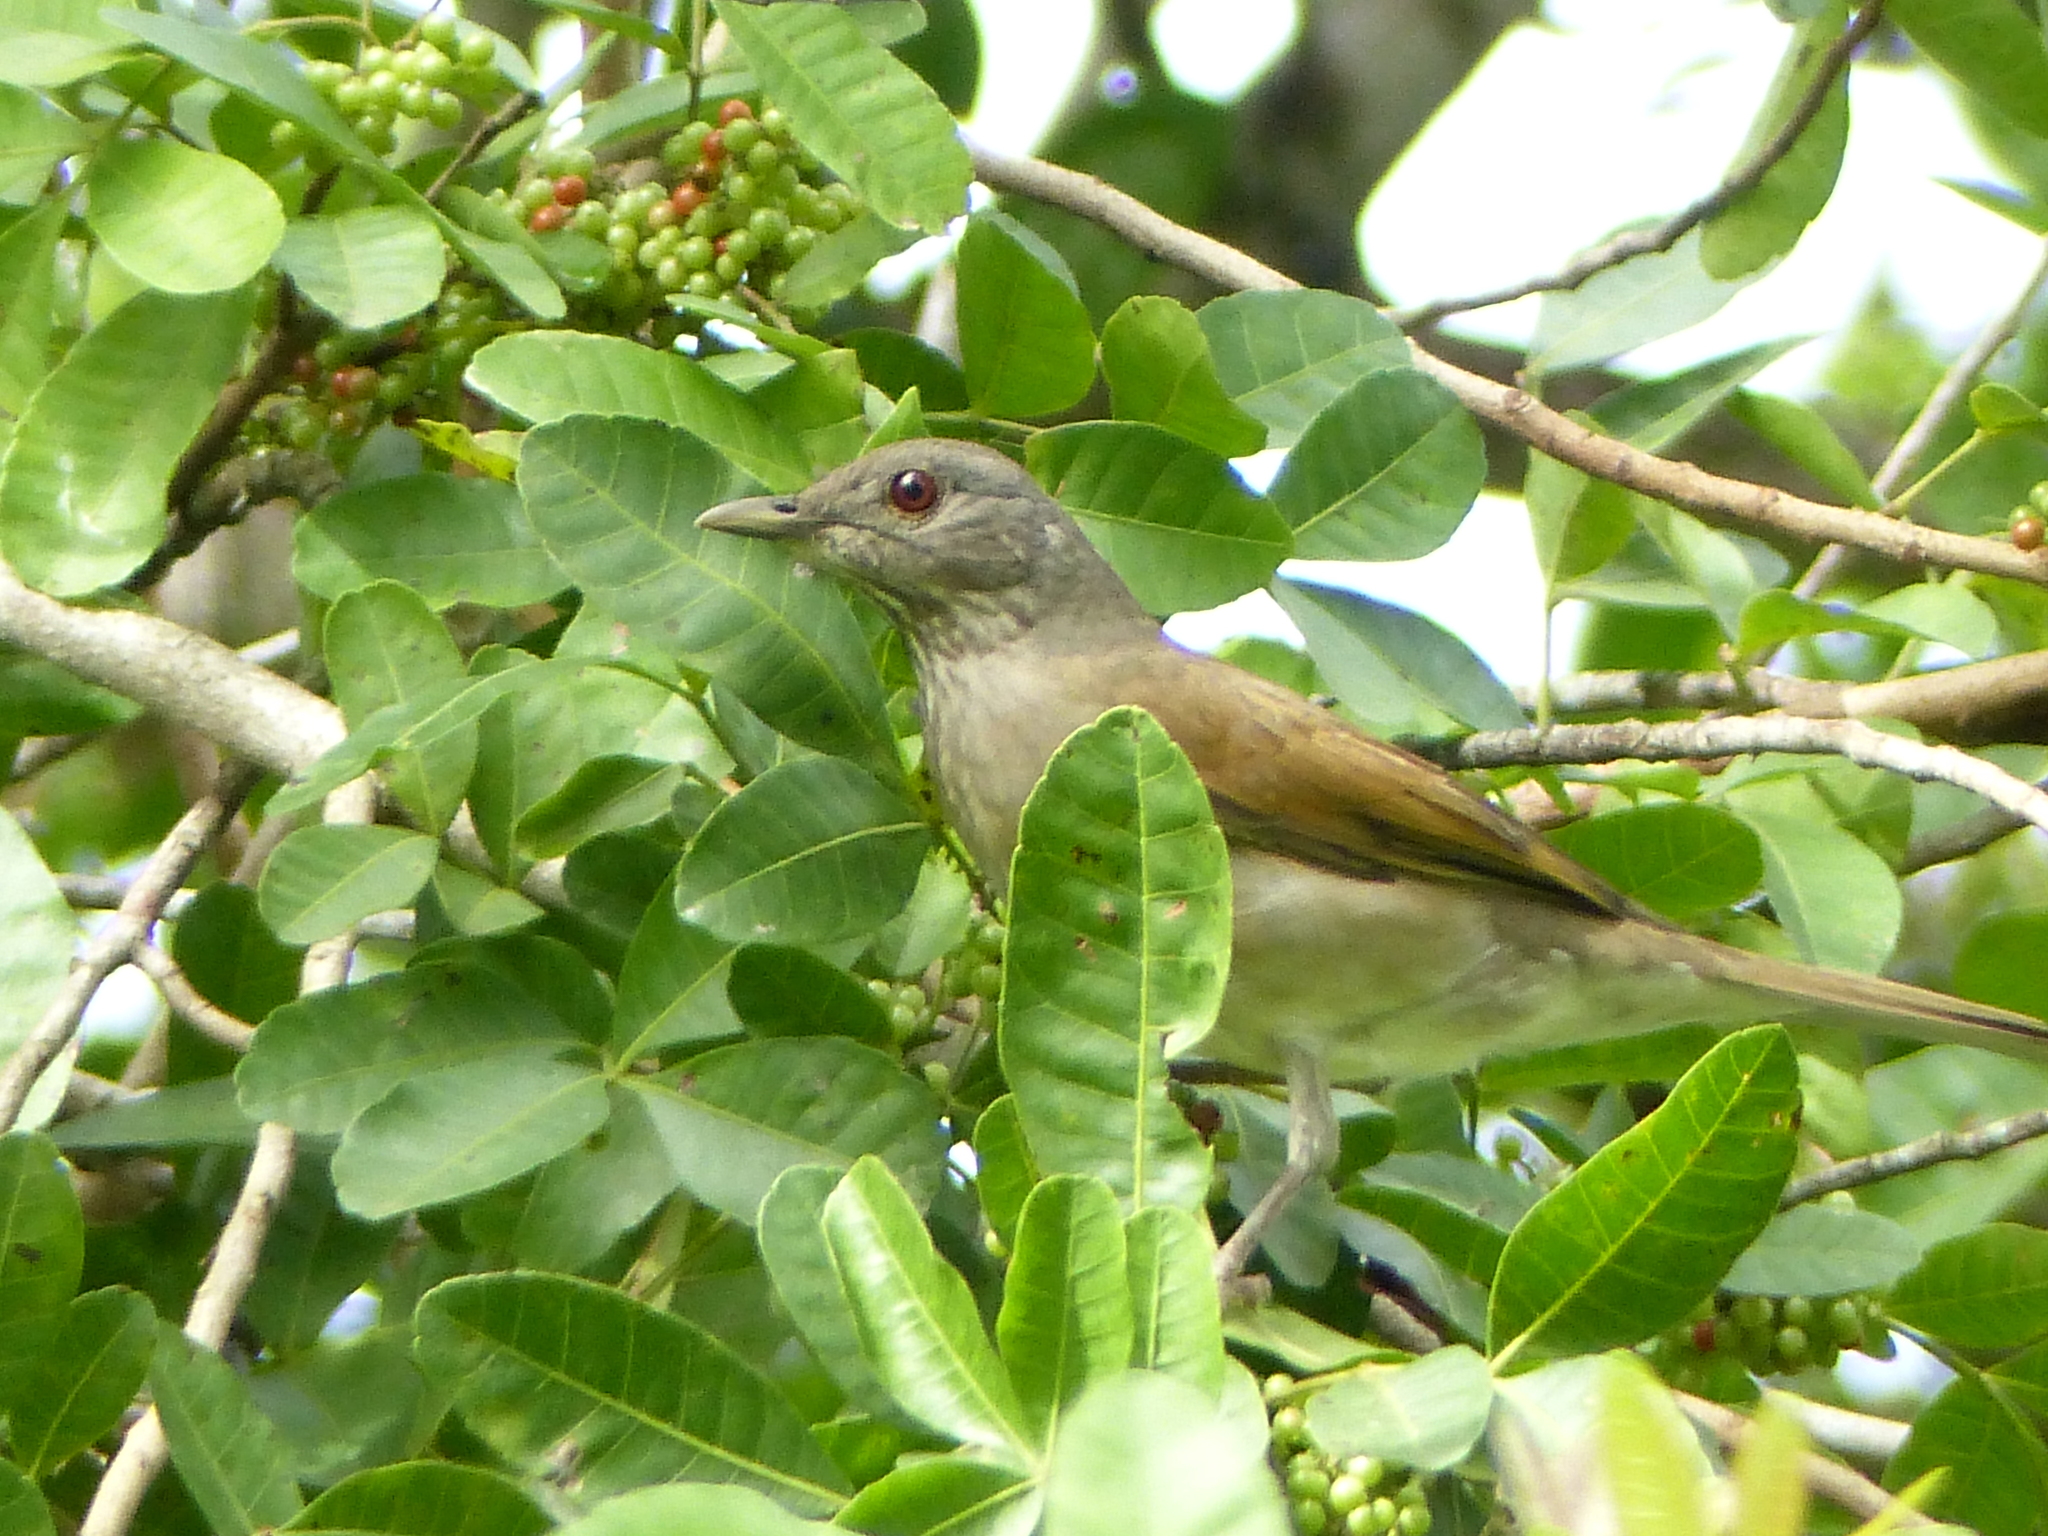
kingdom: Animalia
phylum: Chordata
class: Aves
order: Passeriformes
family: Turdidae
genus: Turdus
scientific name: Turdus leucomelas
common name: Pale-breasted thrush
